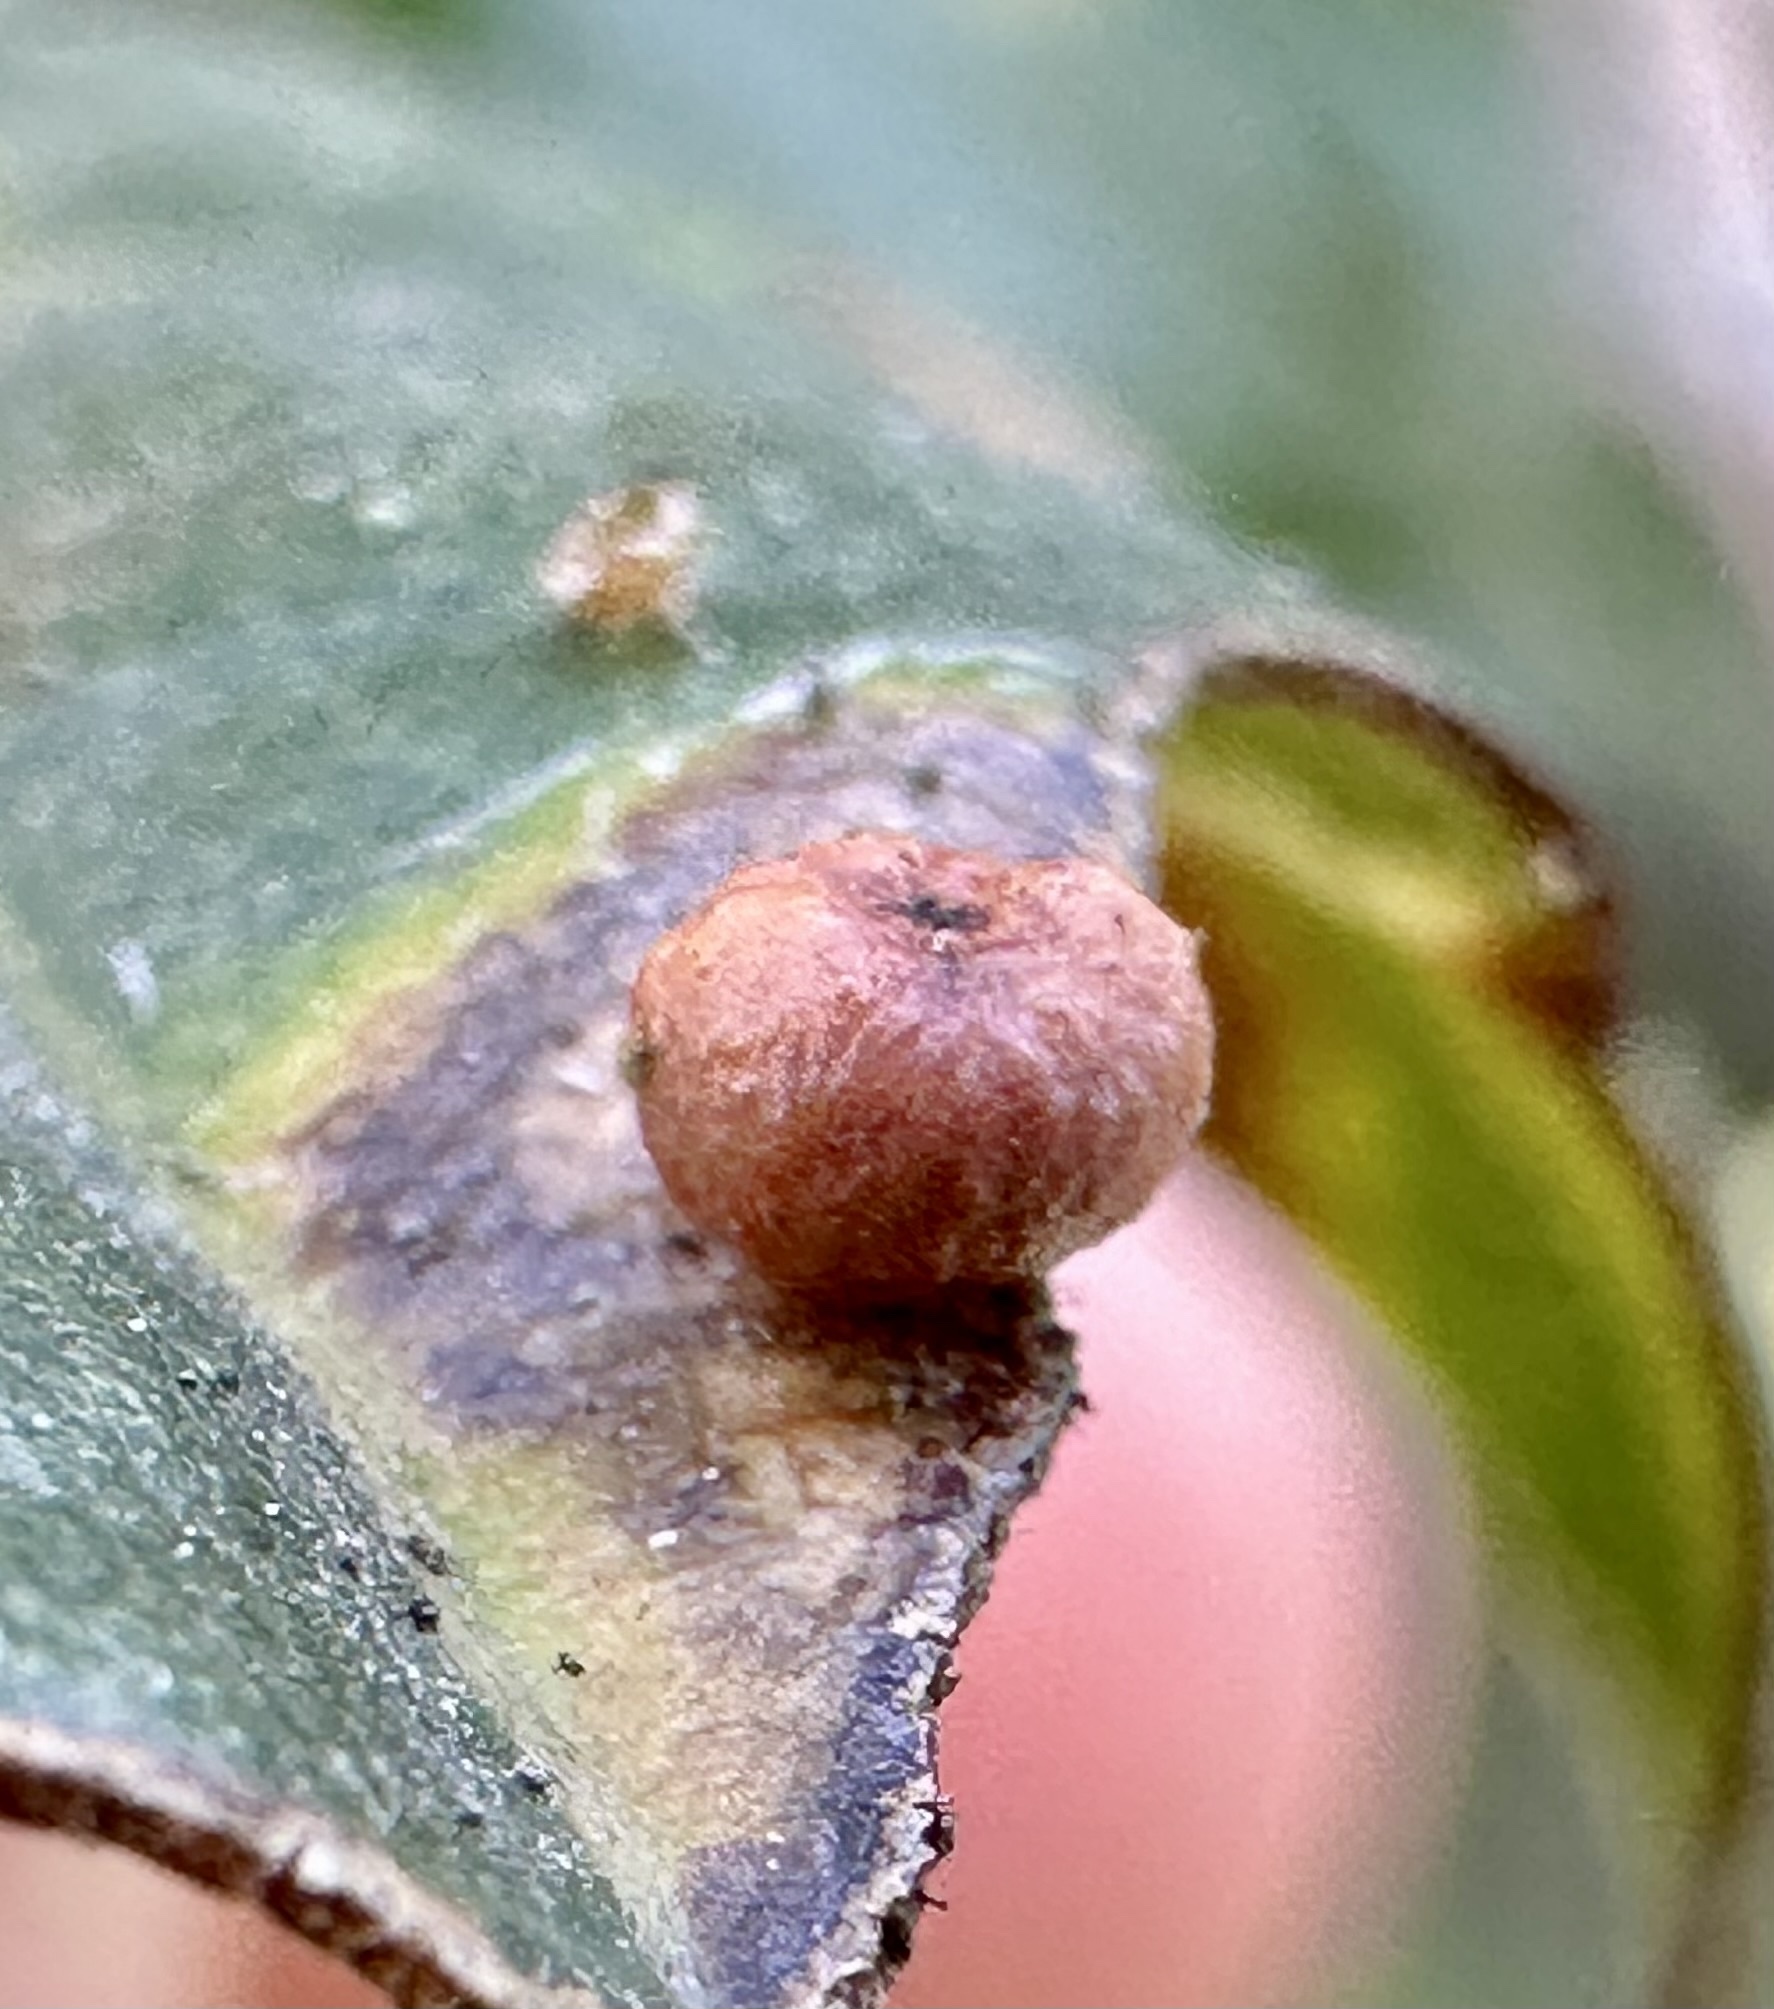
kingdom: Animalia
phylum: Arthropoda
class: Insecta
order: Hymenoptera
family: Cynipidae
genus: Dryocosmus
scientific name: Dryocosmus
